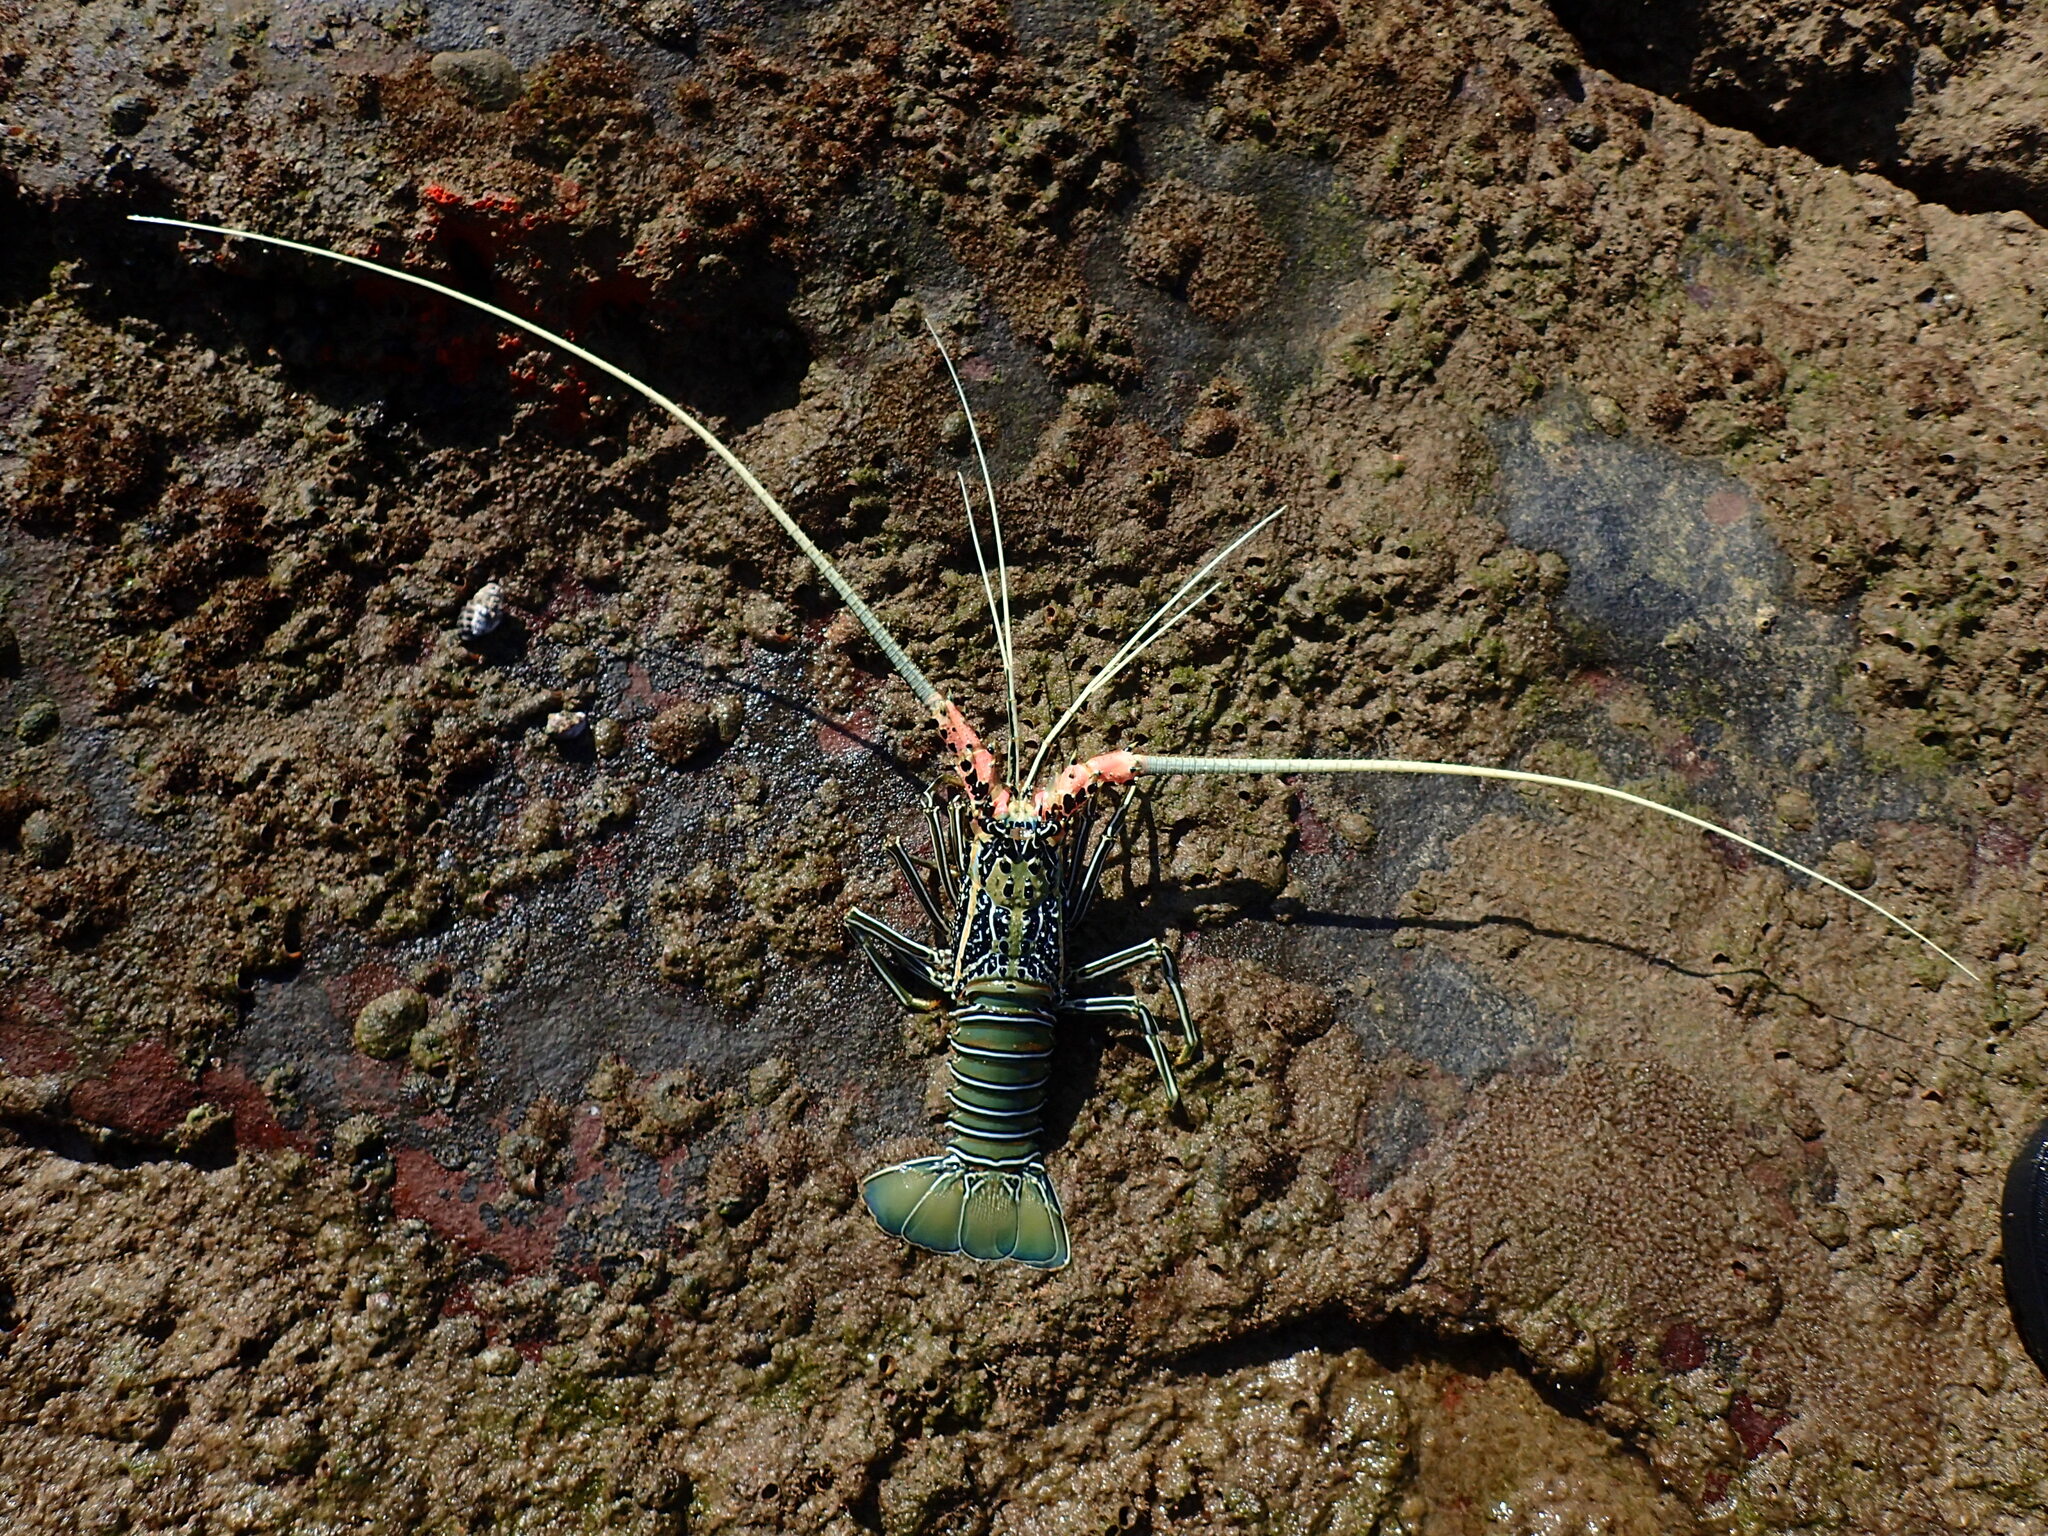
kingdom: Animalia
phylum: Arthropoda
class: Malacostraca
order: Decapoda
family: Palinuridae
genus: Panulirus
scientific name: Panulirus versicolor
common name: Painted spiny lobster
